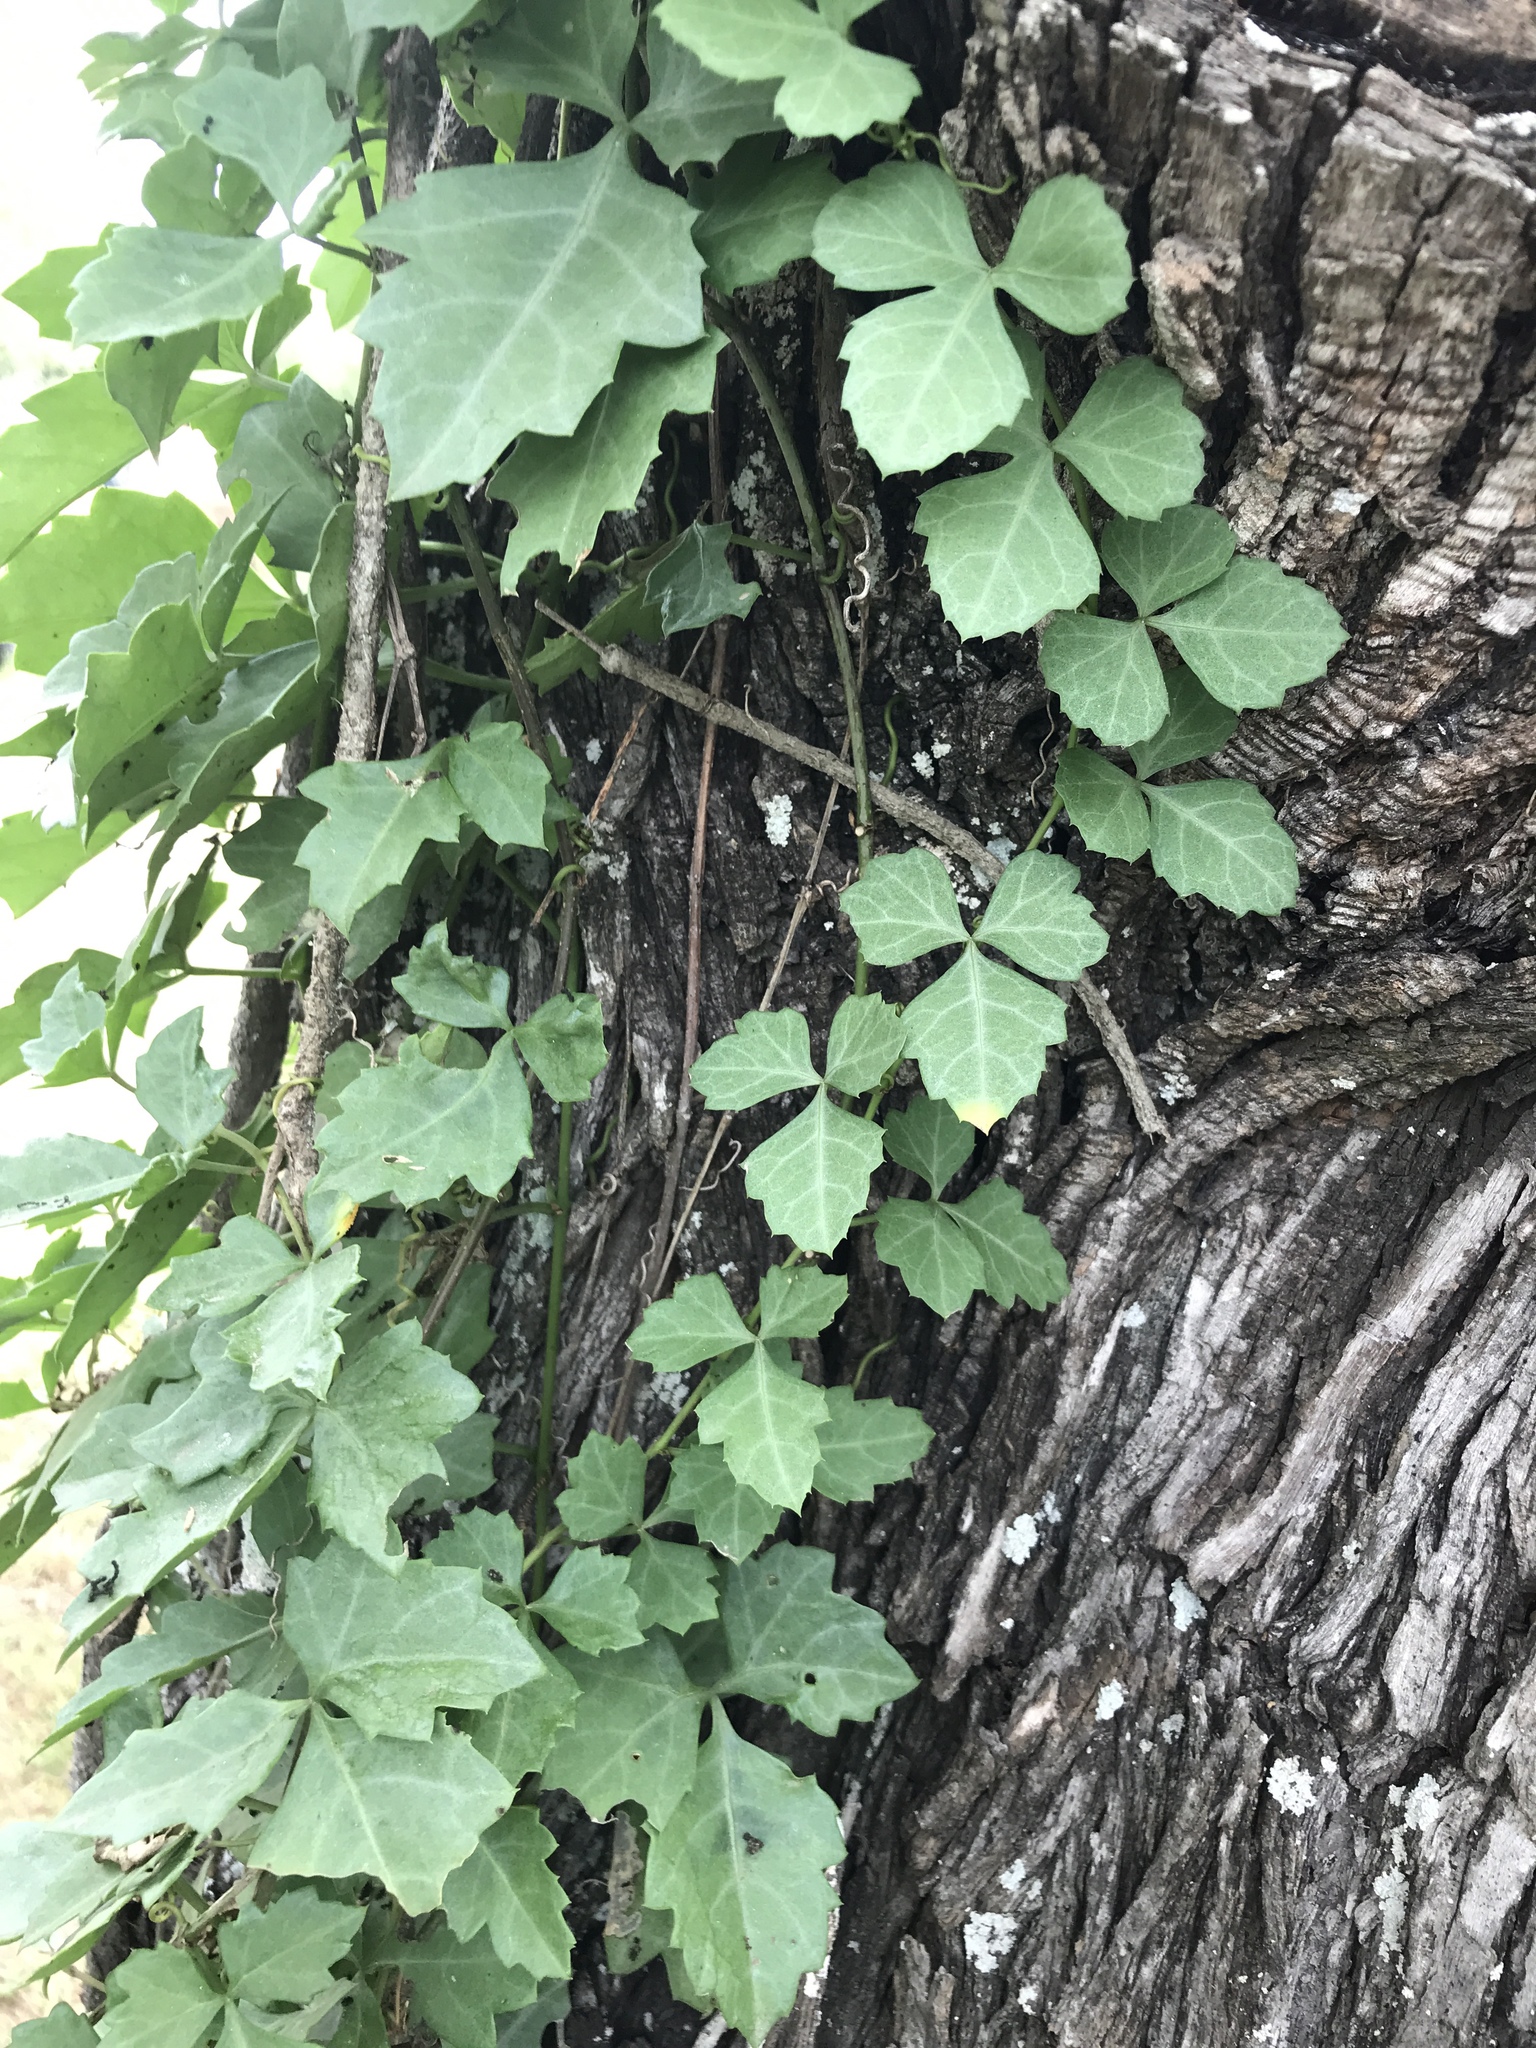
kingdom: Plantae
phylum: Tracheophyta
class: Magnoliopsida
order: Vitales
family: Vitaceae
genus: Cissus
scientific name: Cissus trifoliata
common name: Vine-sorrel
